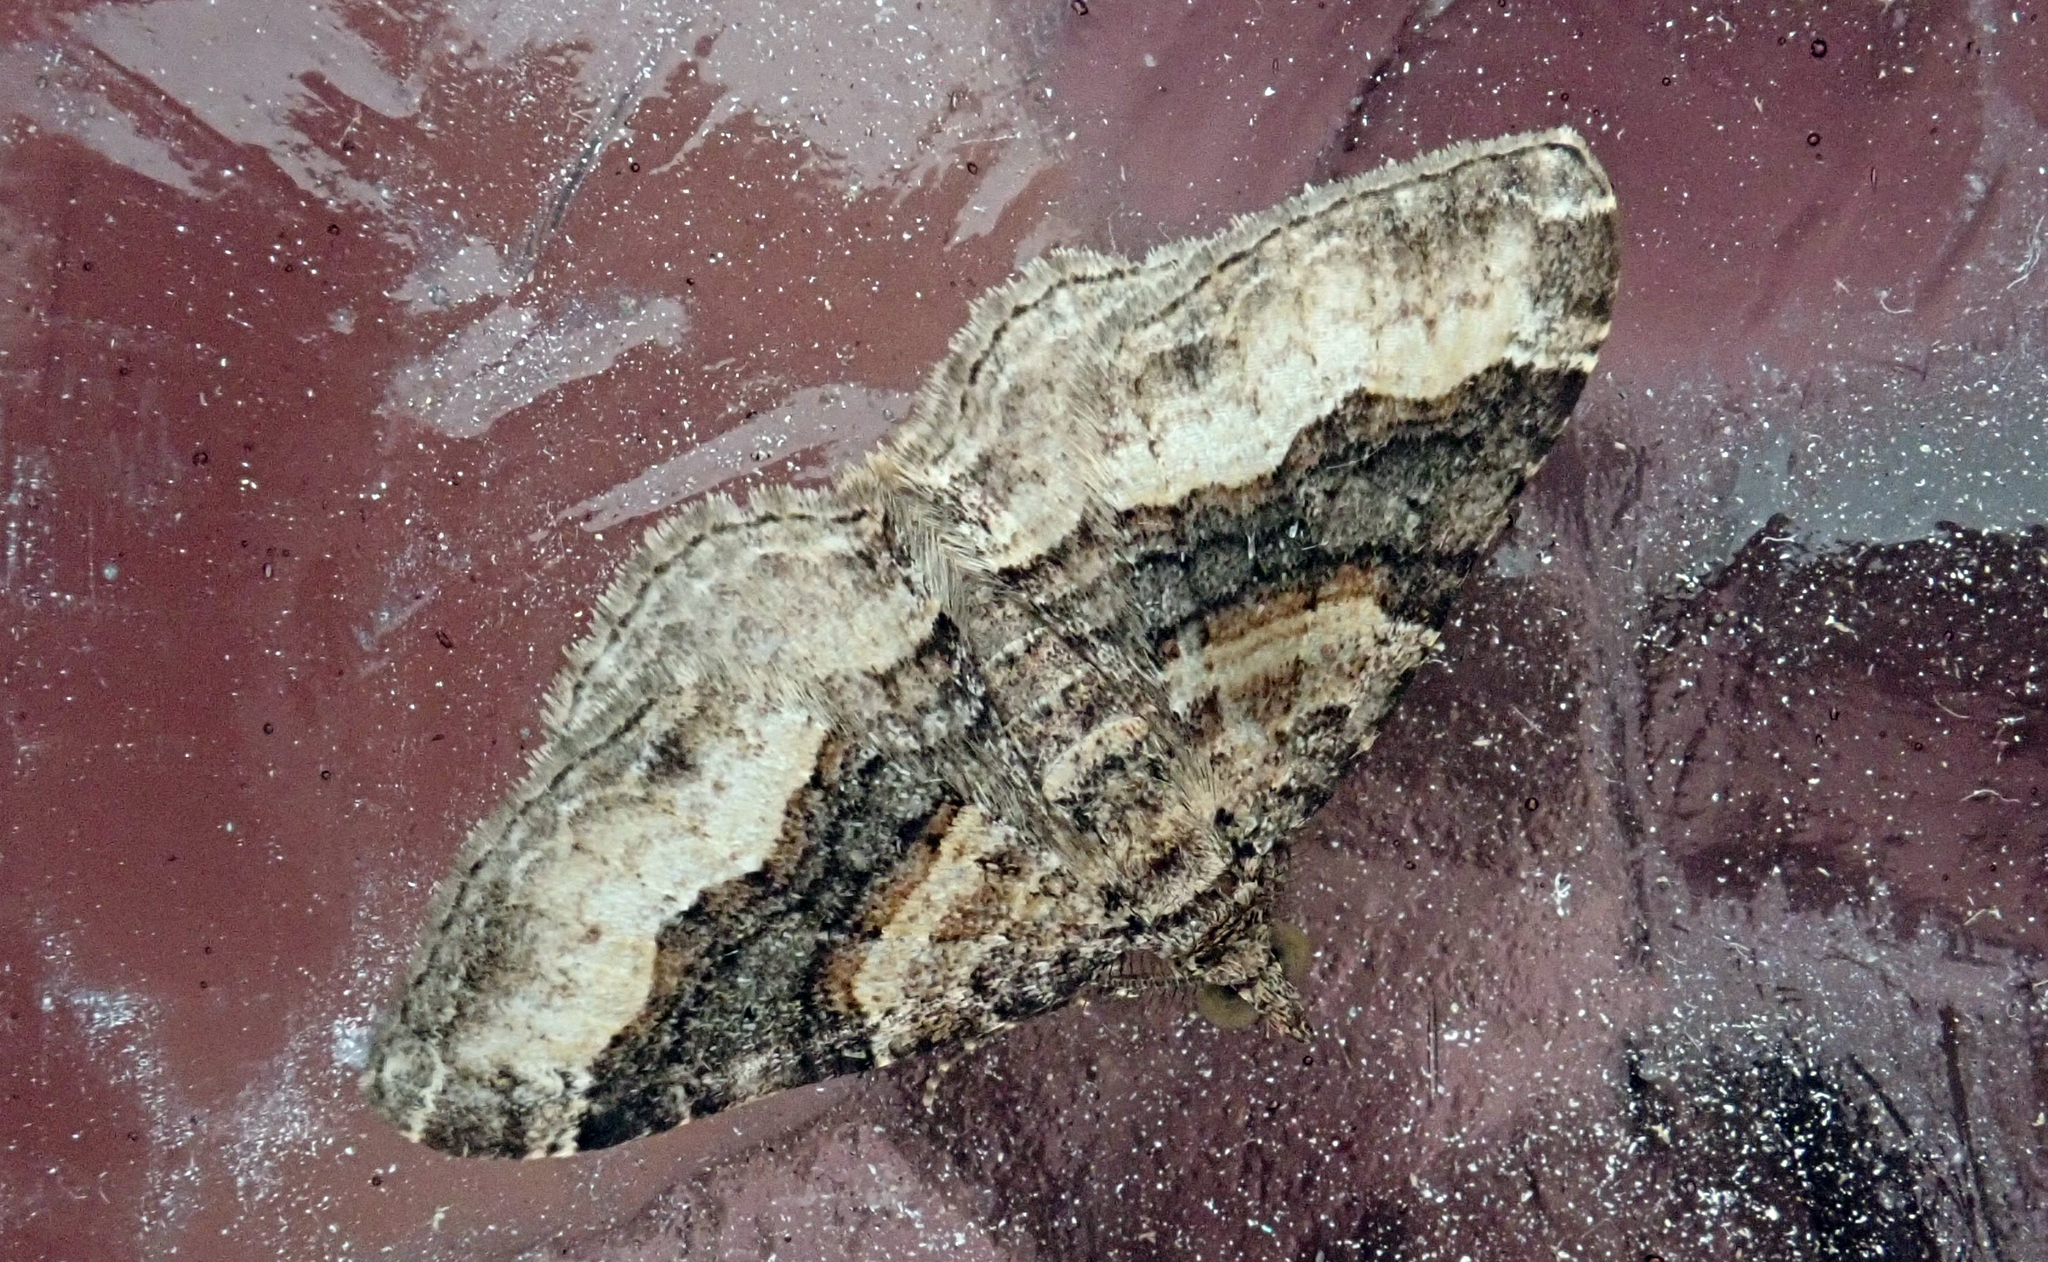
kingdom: Animalia
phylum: Arthropoda
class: Insecta
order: Lepidoptera
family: Geometridae
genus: Epyaxa
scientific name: Epyaxa lucidata
